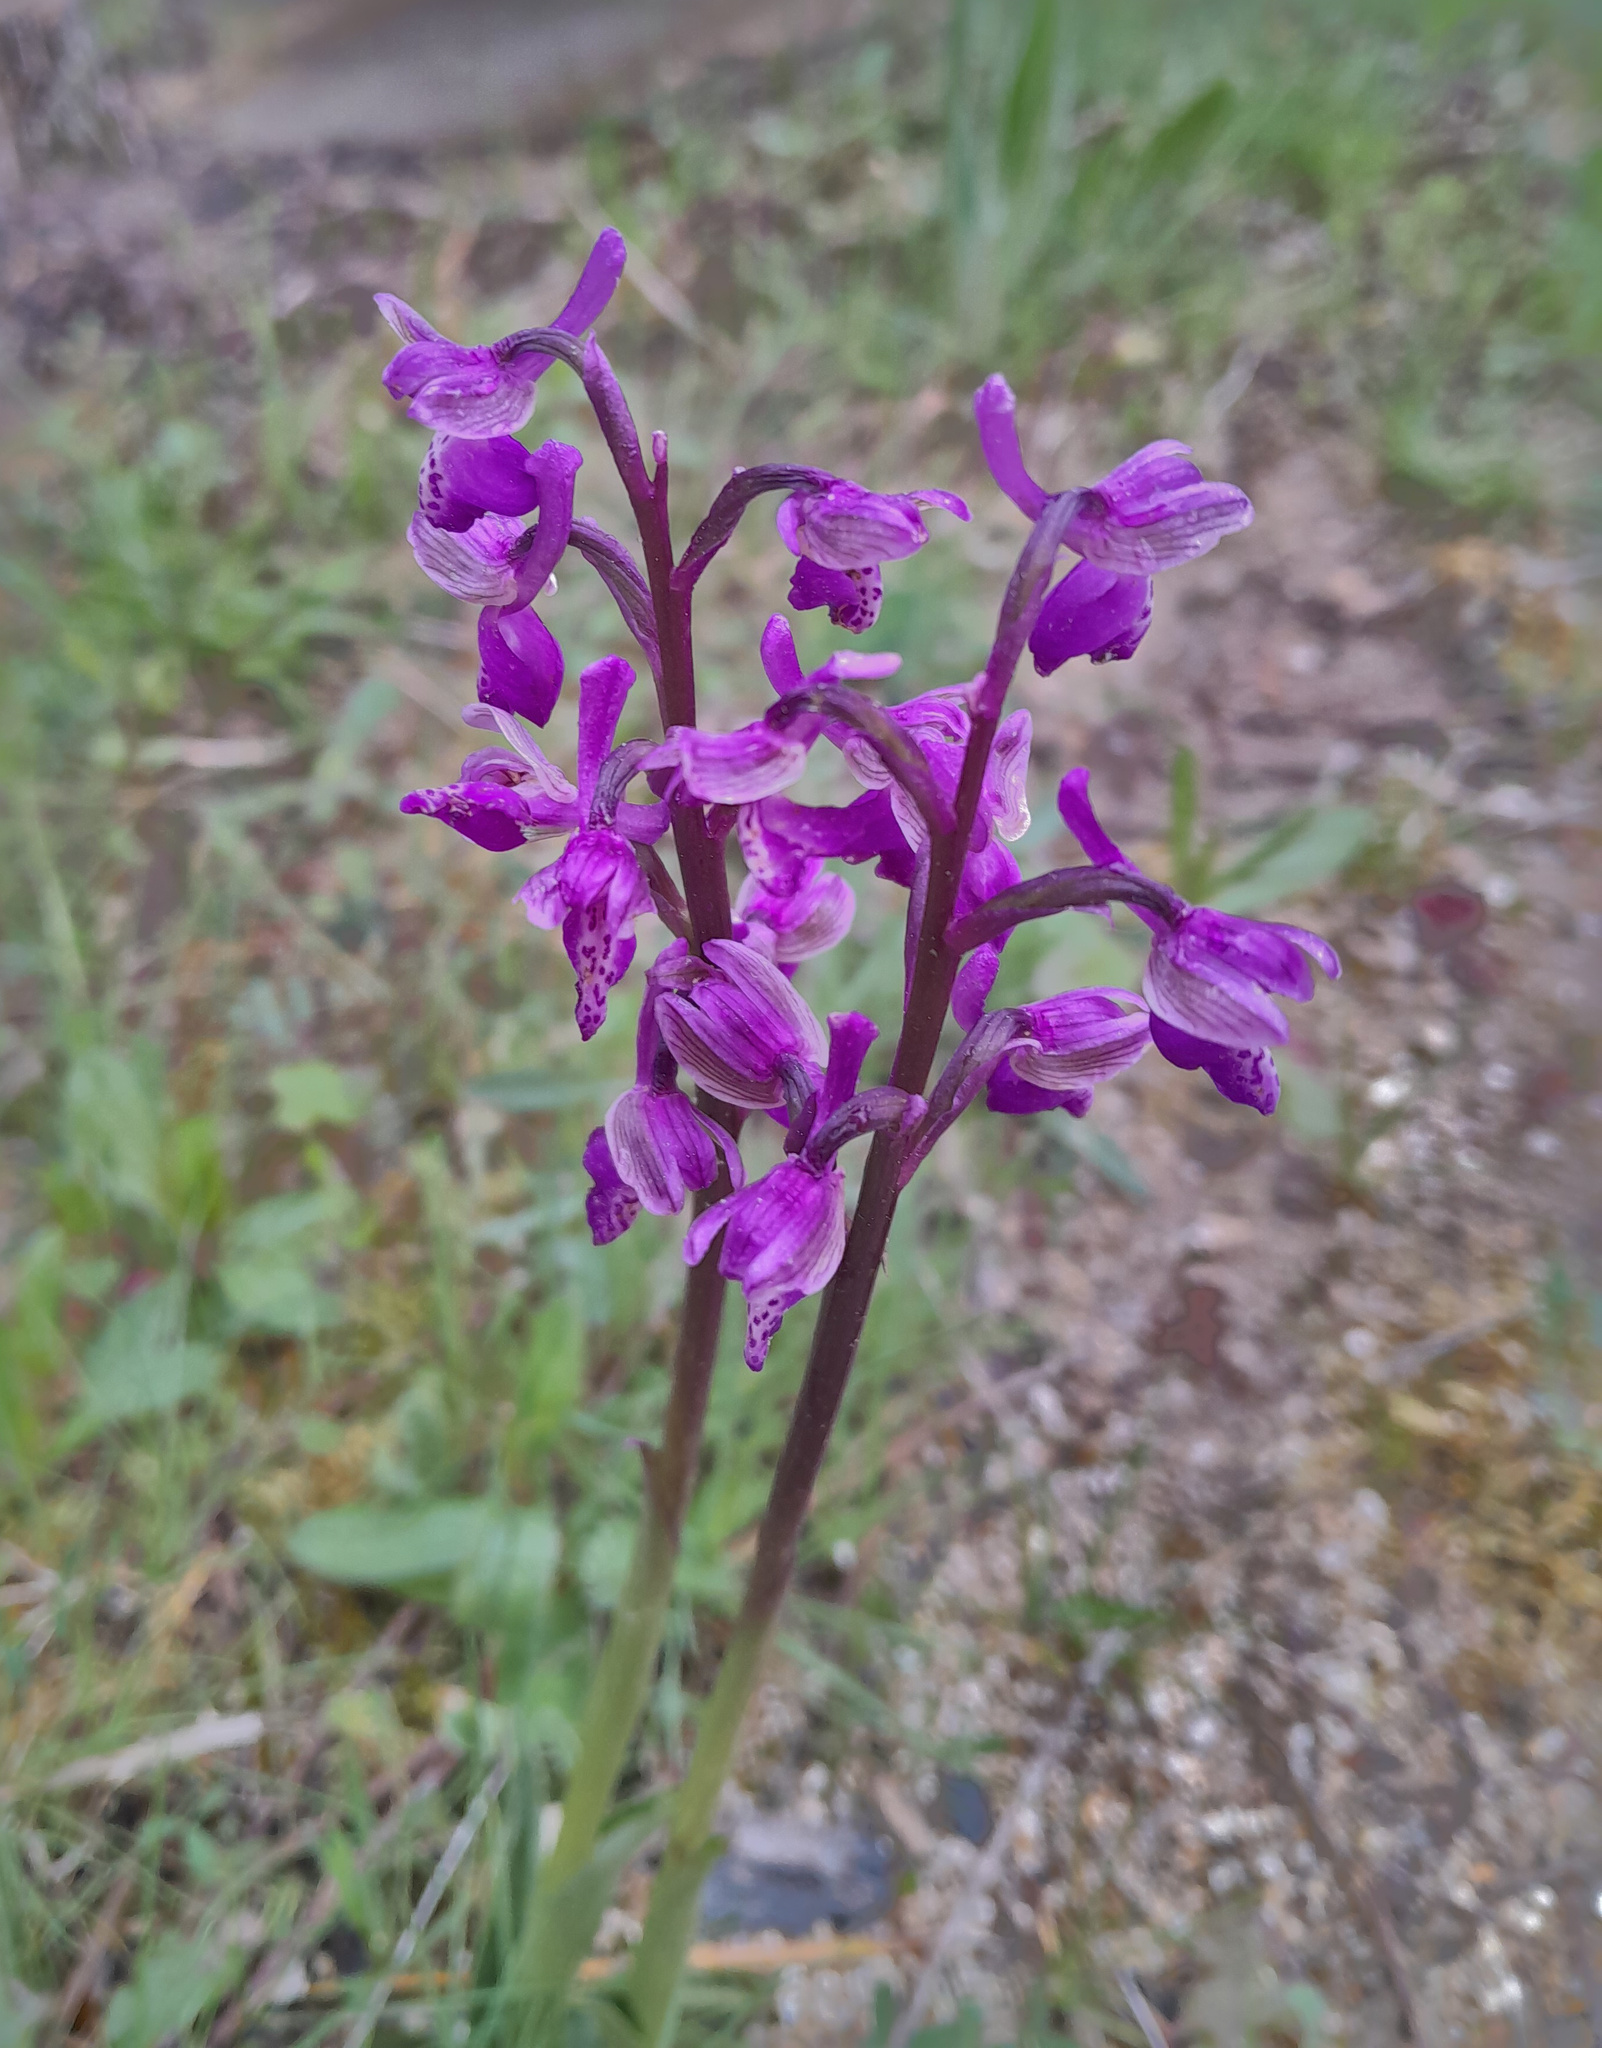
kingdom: Plantae
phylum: Tracheophyta
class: Liliopsida
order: Asparagales
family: Orchidaceae
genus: Anacamptis
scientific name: Anacamptis morio
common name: Green-winged orchid
